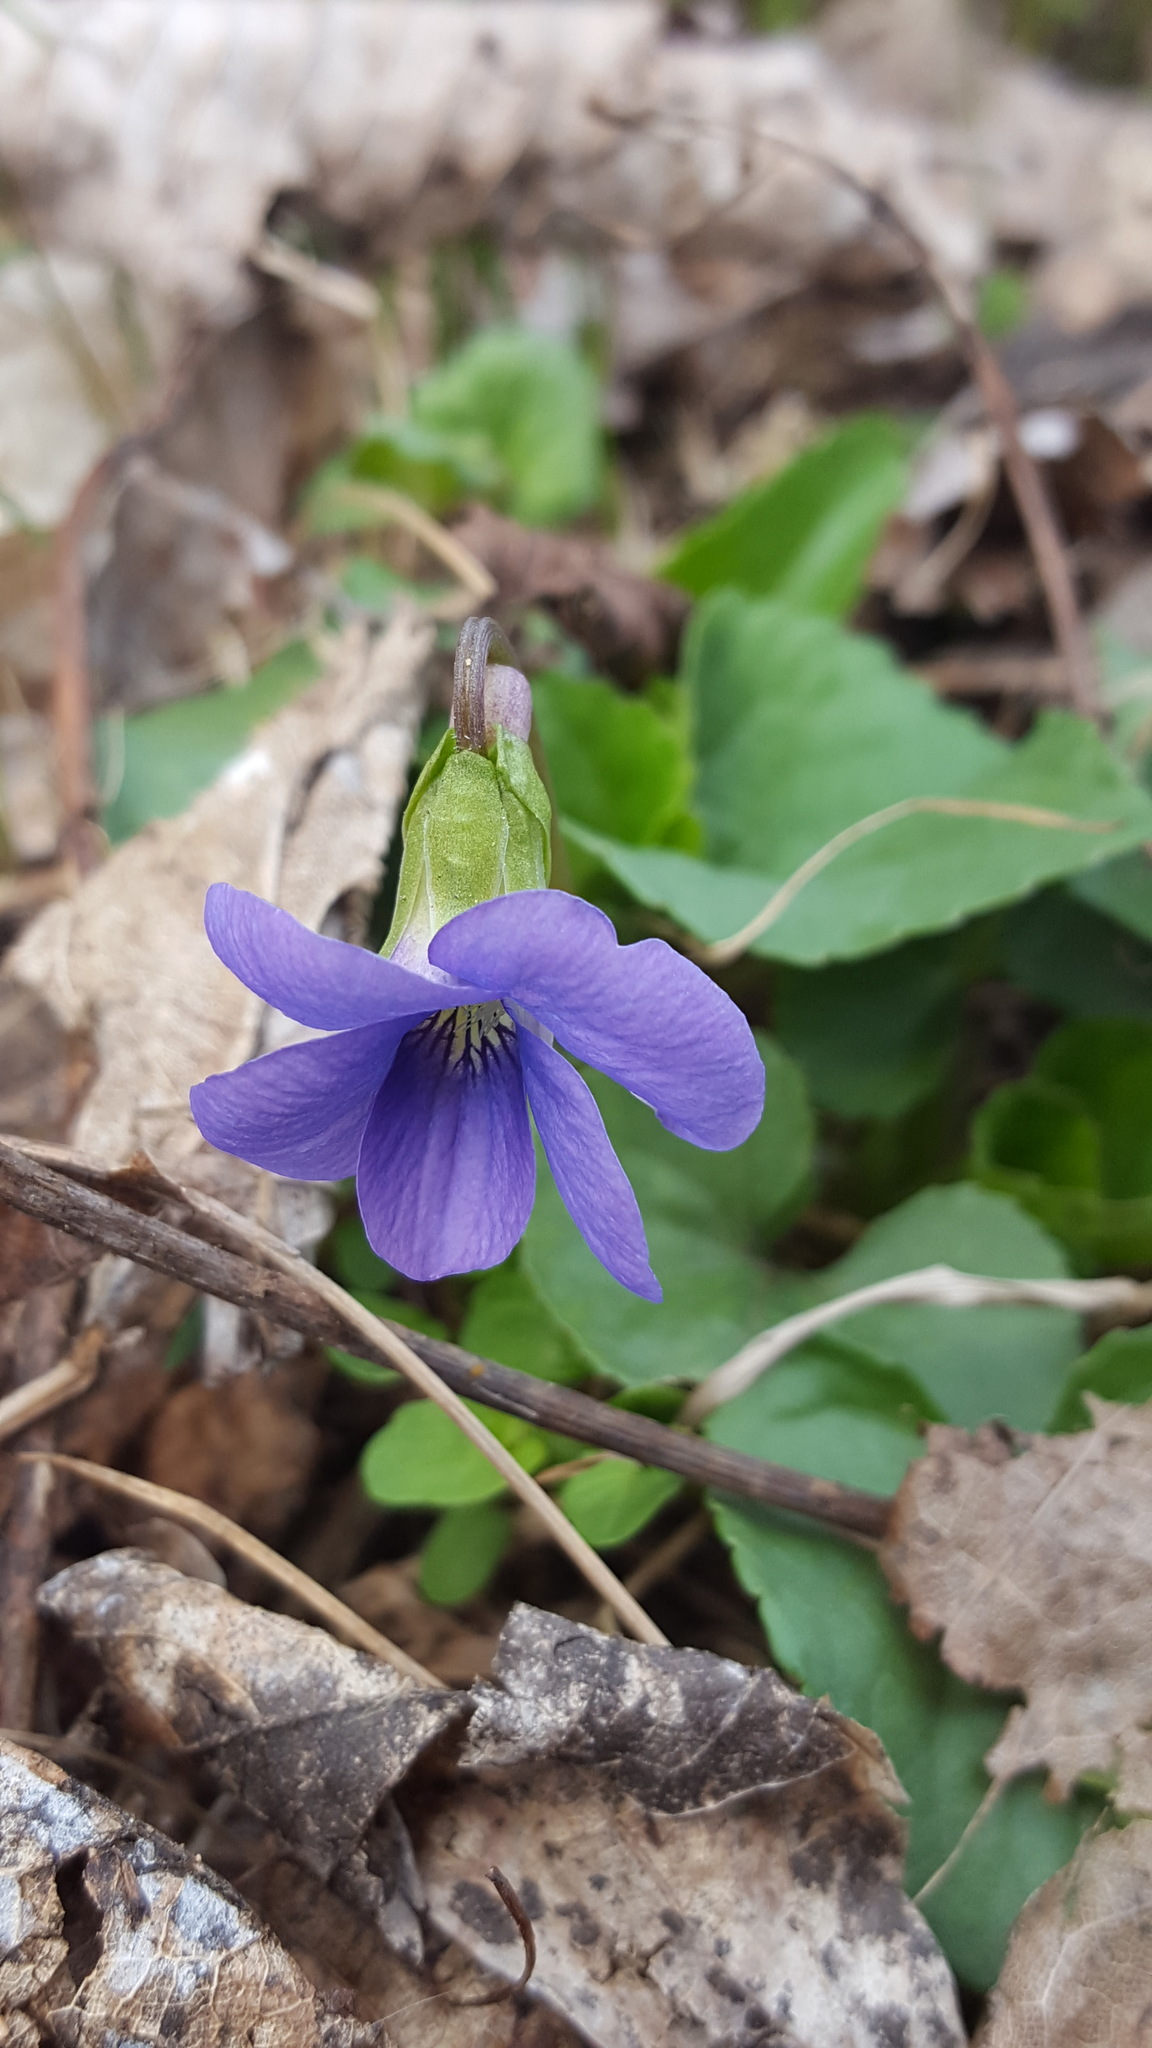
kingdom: Plantae
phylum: Tracheophyta
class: Magnoliopsida
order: Malpighiales
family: Violaceae
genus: Viola
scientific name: Viola sororia
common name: Dooryard violet
